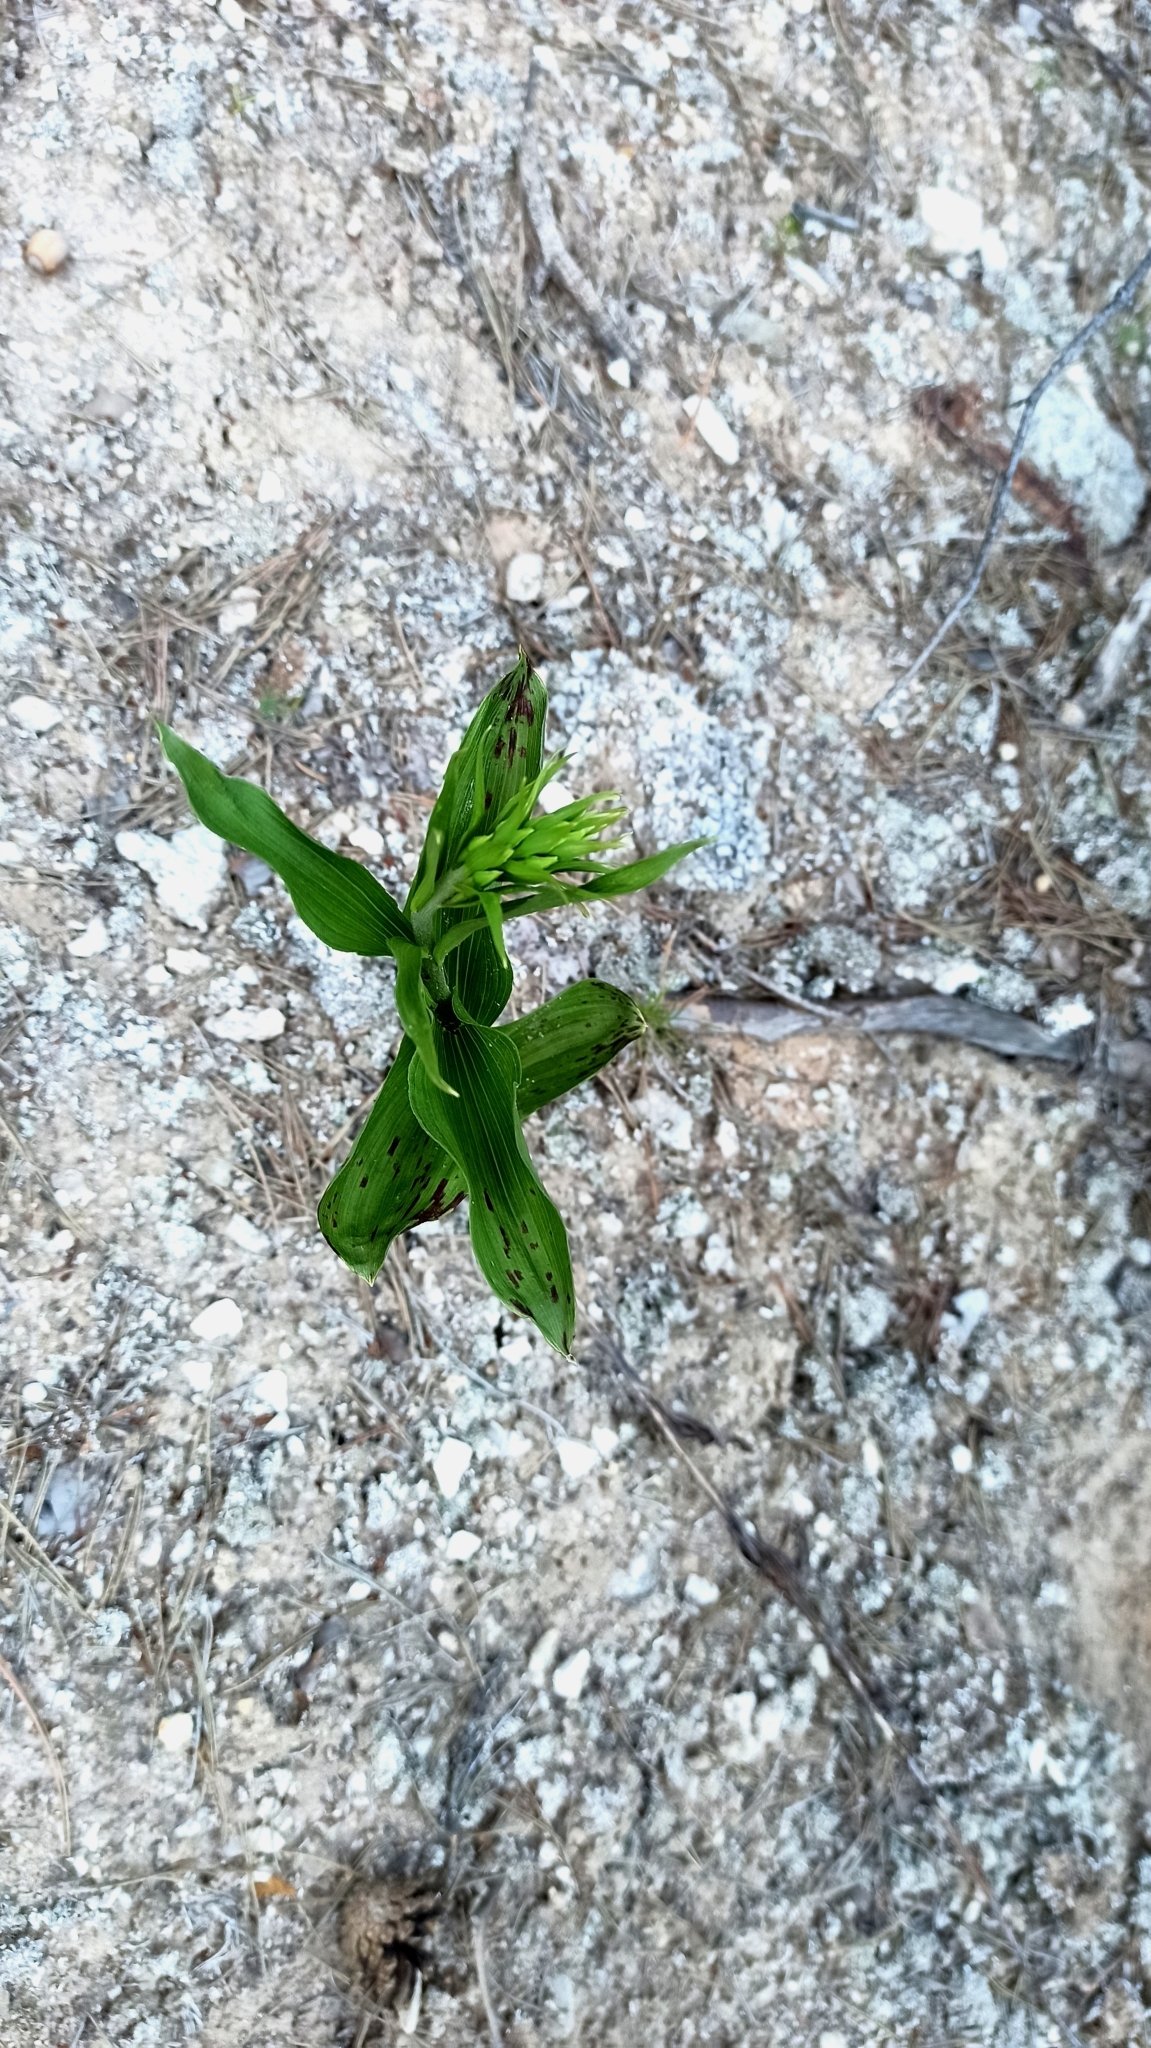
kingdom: Plantae
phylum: Tracheophyta
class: Liliopsida
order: Asparagales
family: Orchidaceae
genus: Epipactis
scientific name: Epipactis helleborine
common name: Broad-leaved helleborine
